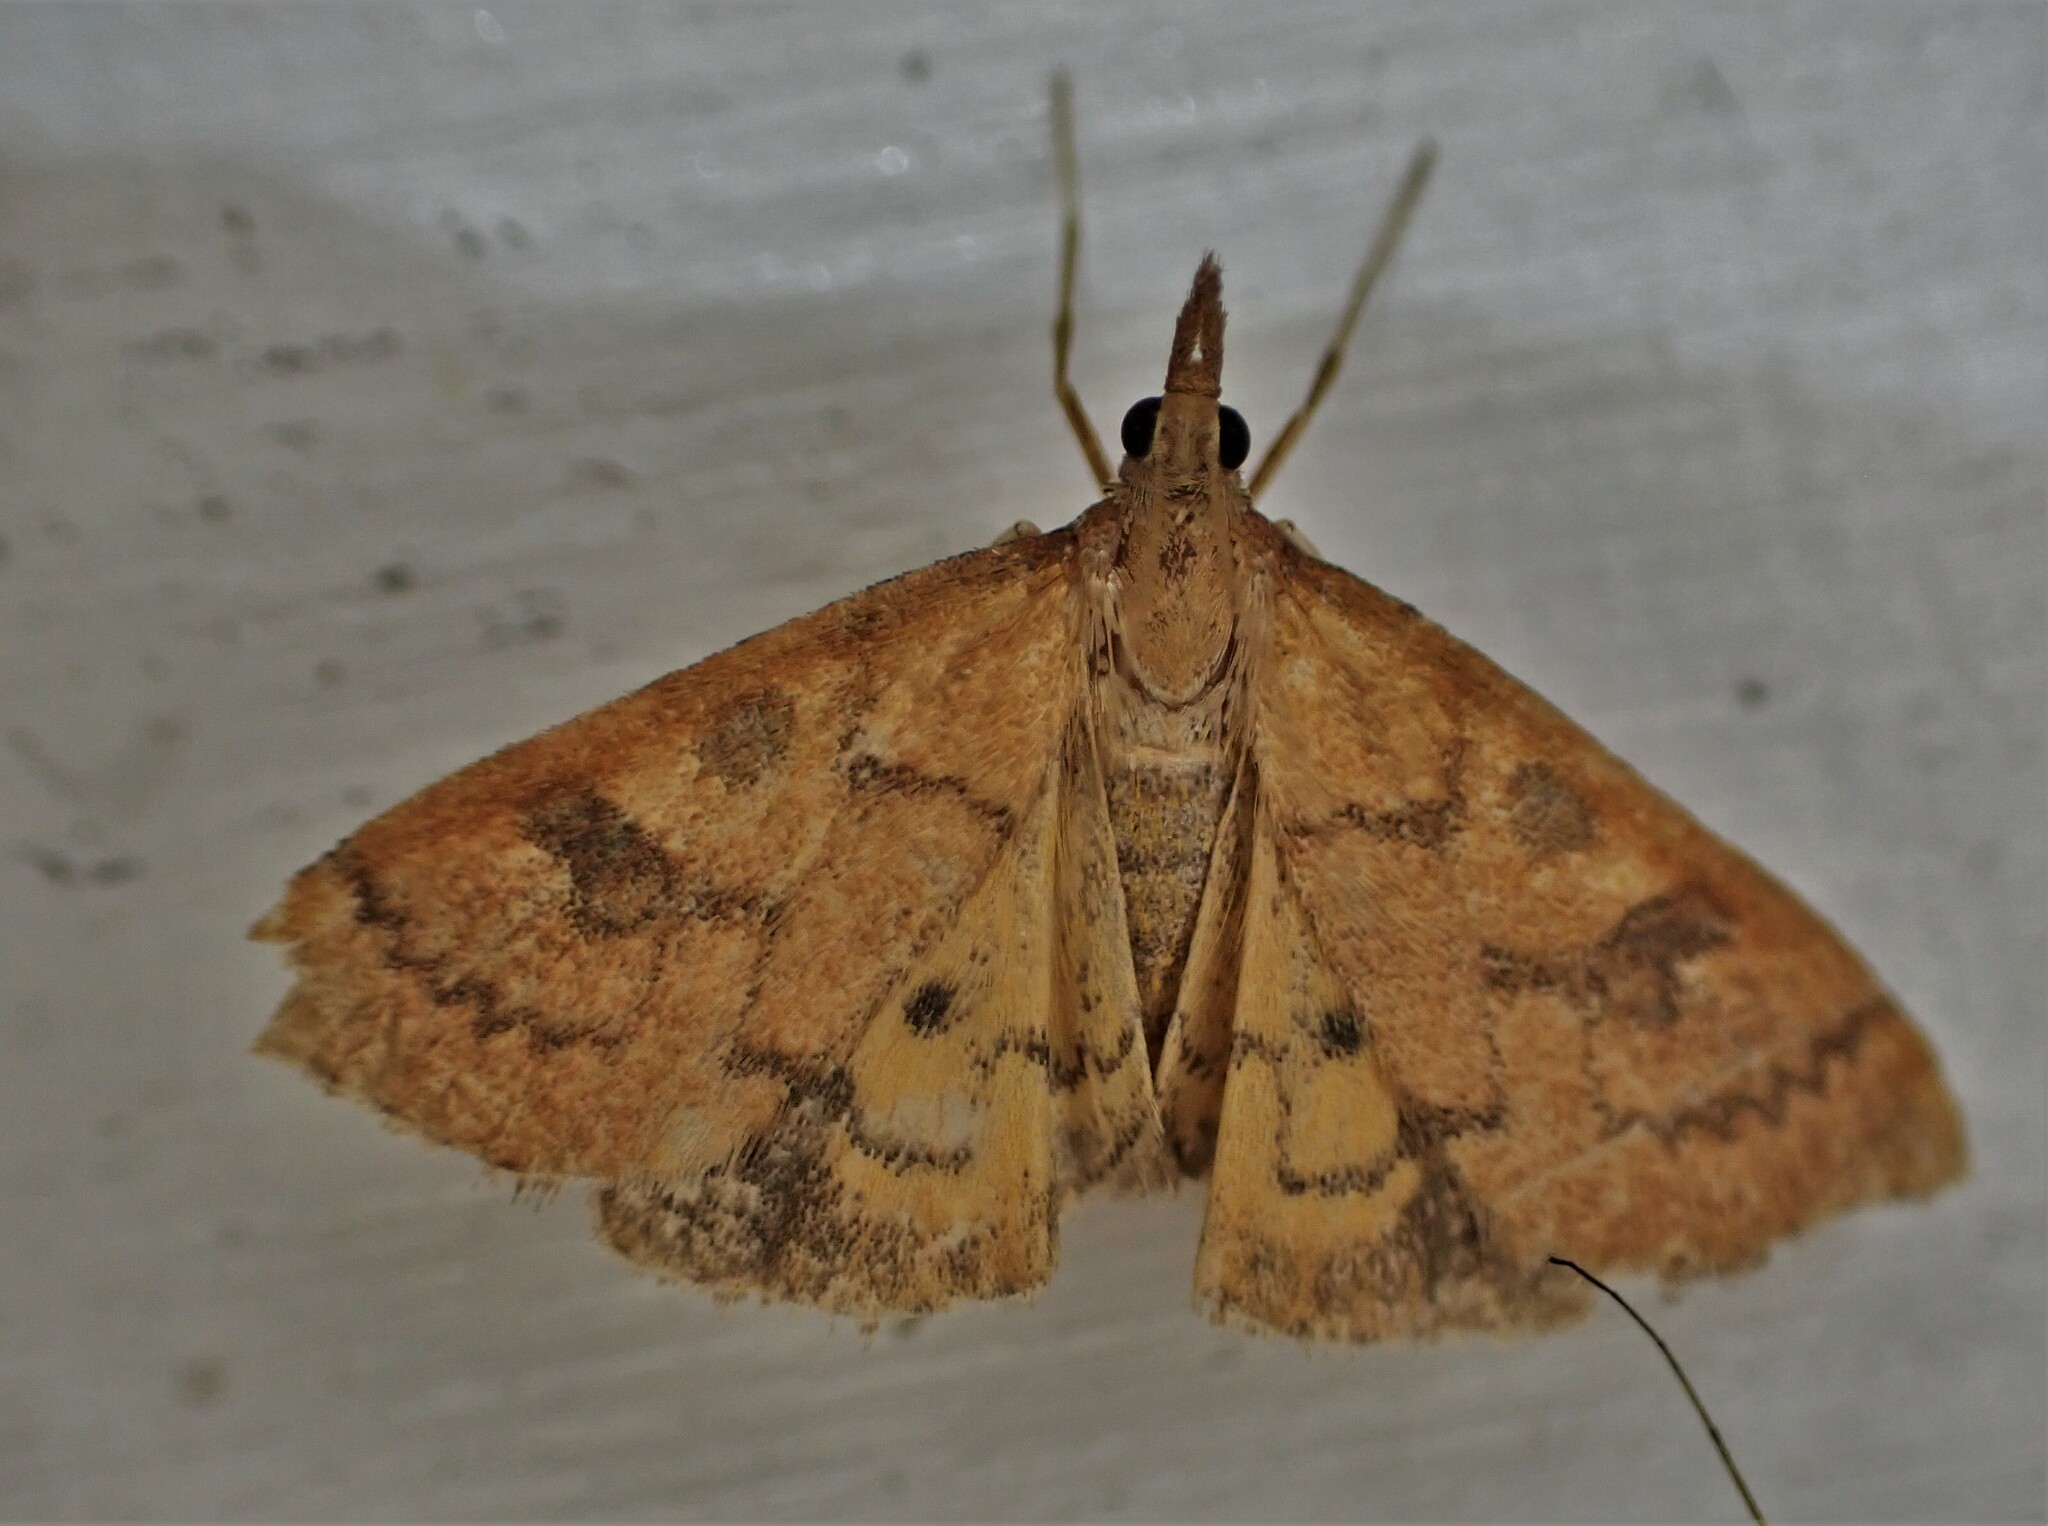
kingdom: Animalia
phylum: Arthropoda
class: Insecta
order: Lepidoptera
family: Crambidae
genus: Udea
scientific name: Udea Mnesictena flavidalis
